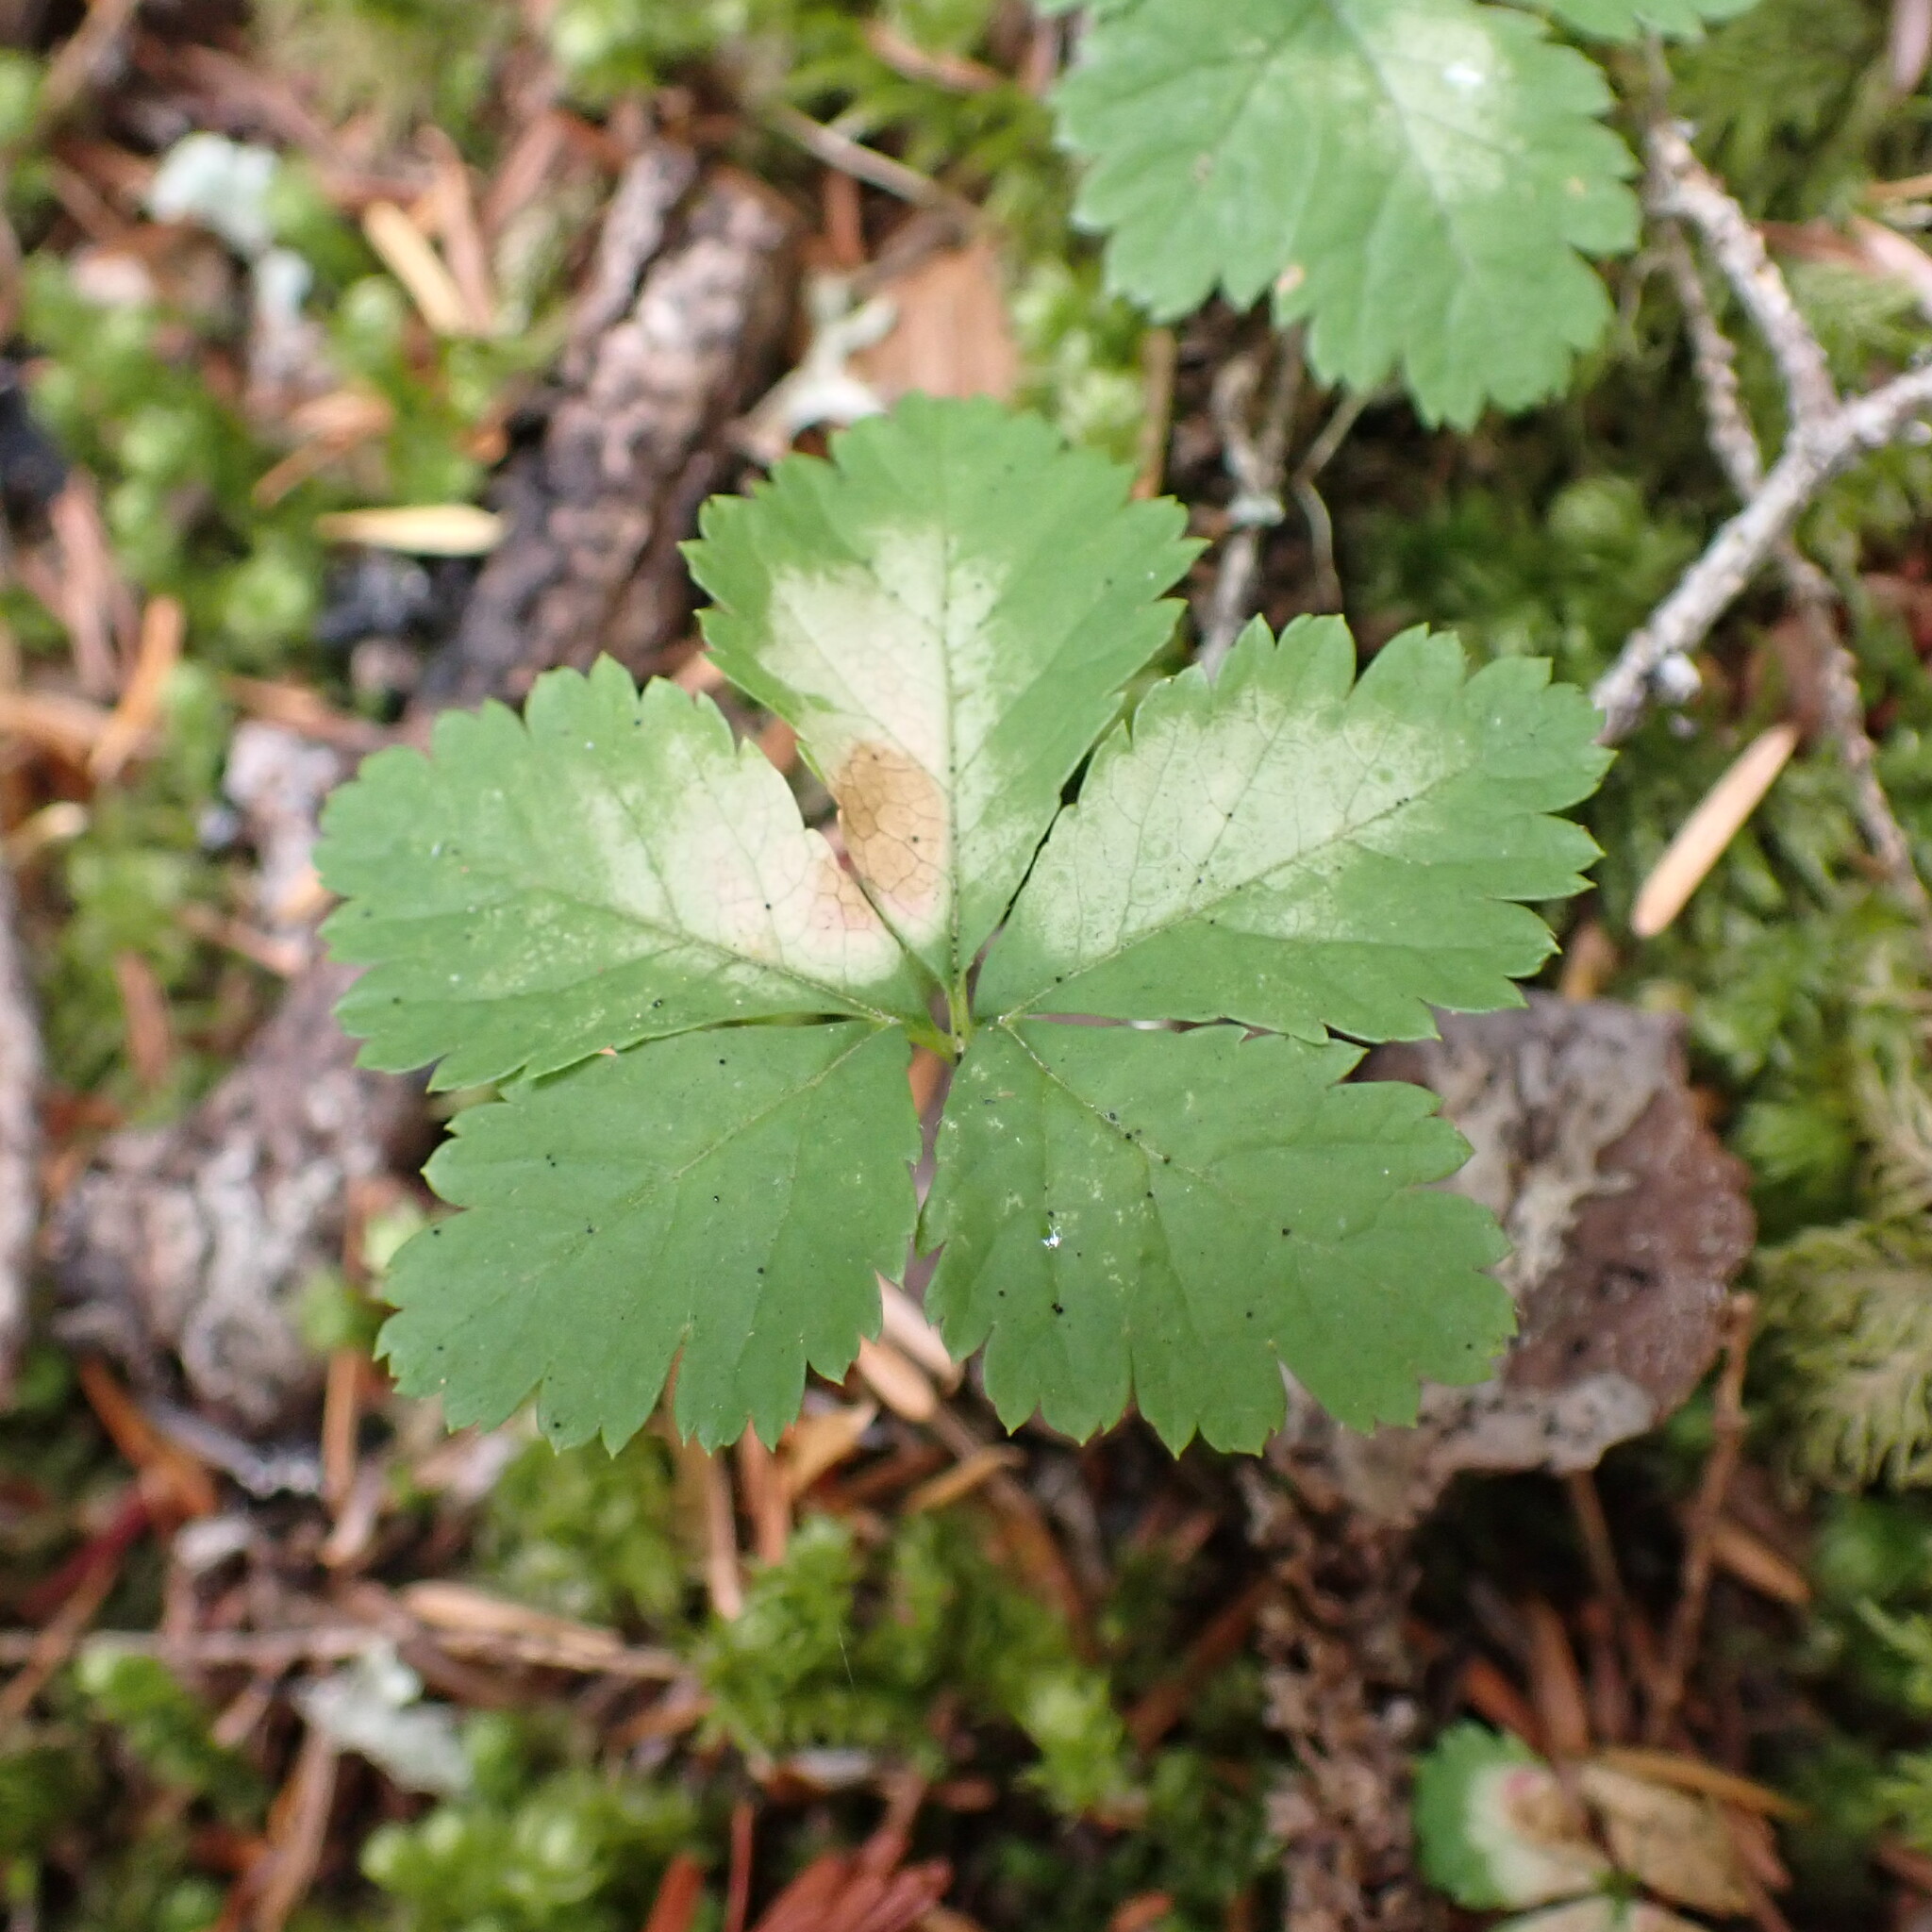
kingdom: Plantae
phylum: Tracheophyta
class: Magnoliopsida
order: Rosales
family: Rosaceae
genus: Rubus
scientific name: Rubus pedatus
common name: Creeping raspberry
